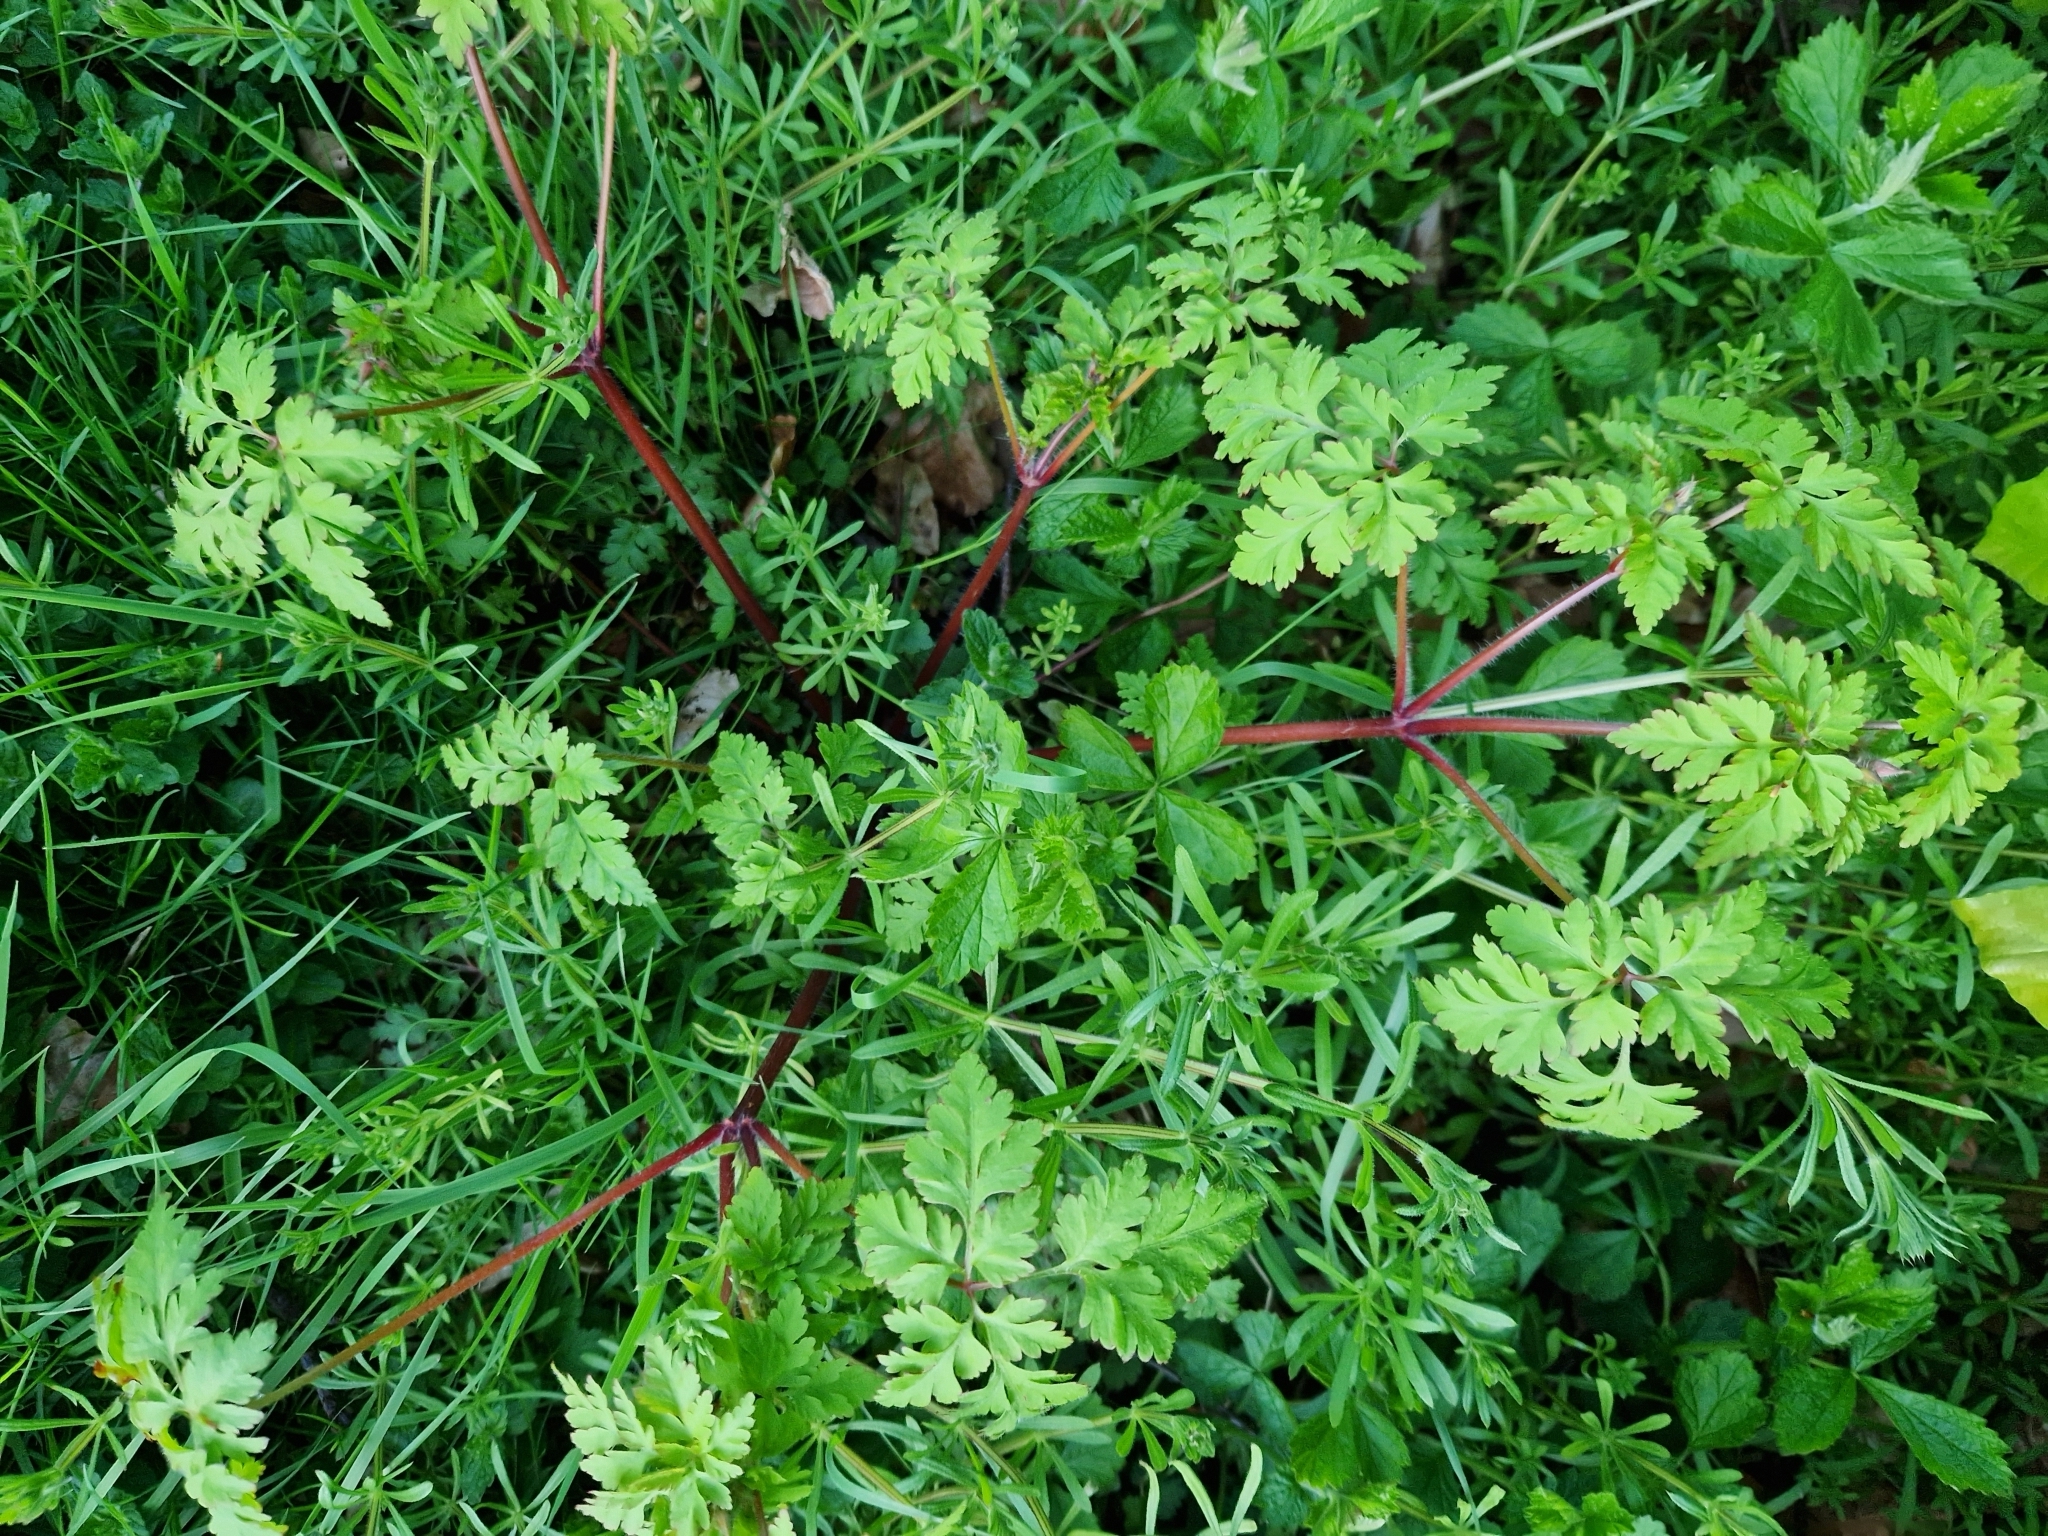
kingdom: Plantae
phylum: Tracheophyta
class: Magnoliopsida
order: Geraniales
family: Geraniaceae
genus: Geranium
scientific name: Geranium robertianum
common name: Herb-robert
